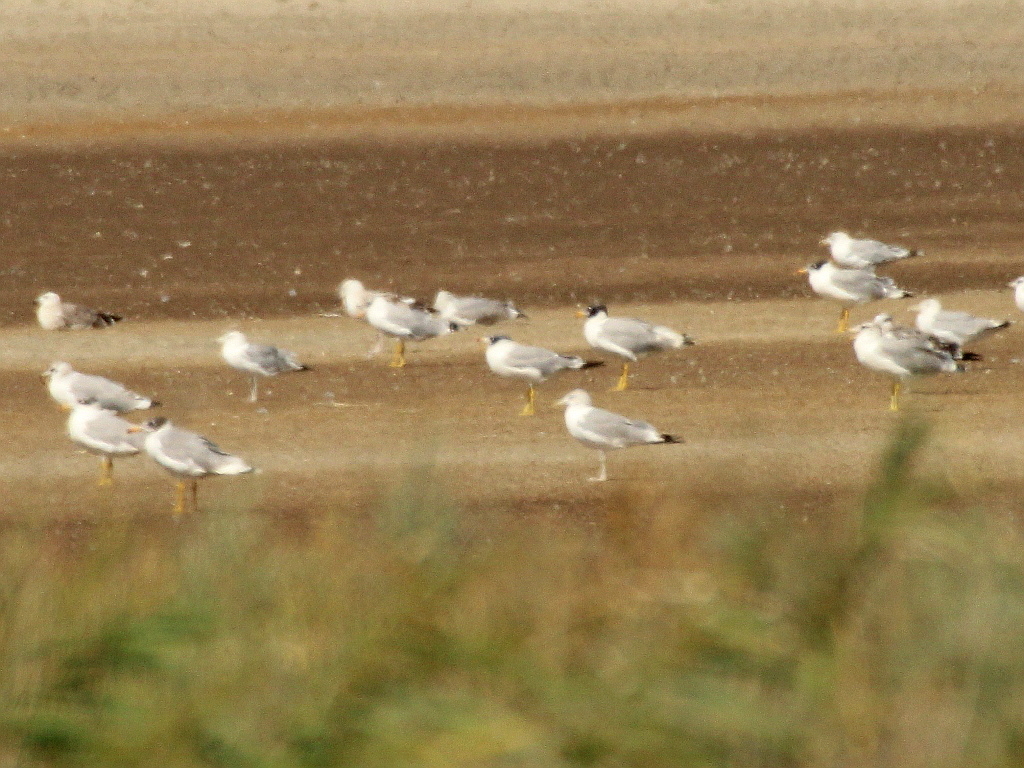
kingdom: Animalia
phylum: Chordata
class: Aves
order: Charadriiformes
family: Laridae
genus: Ichthyaetus
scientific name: Ichthyaetus ichthyaetus
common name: Pallas's gull
